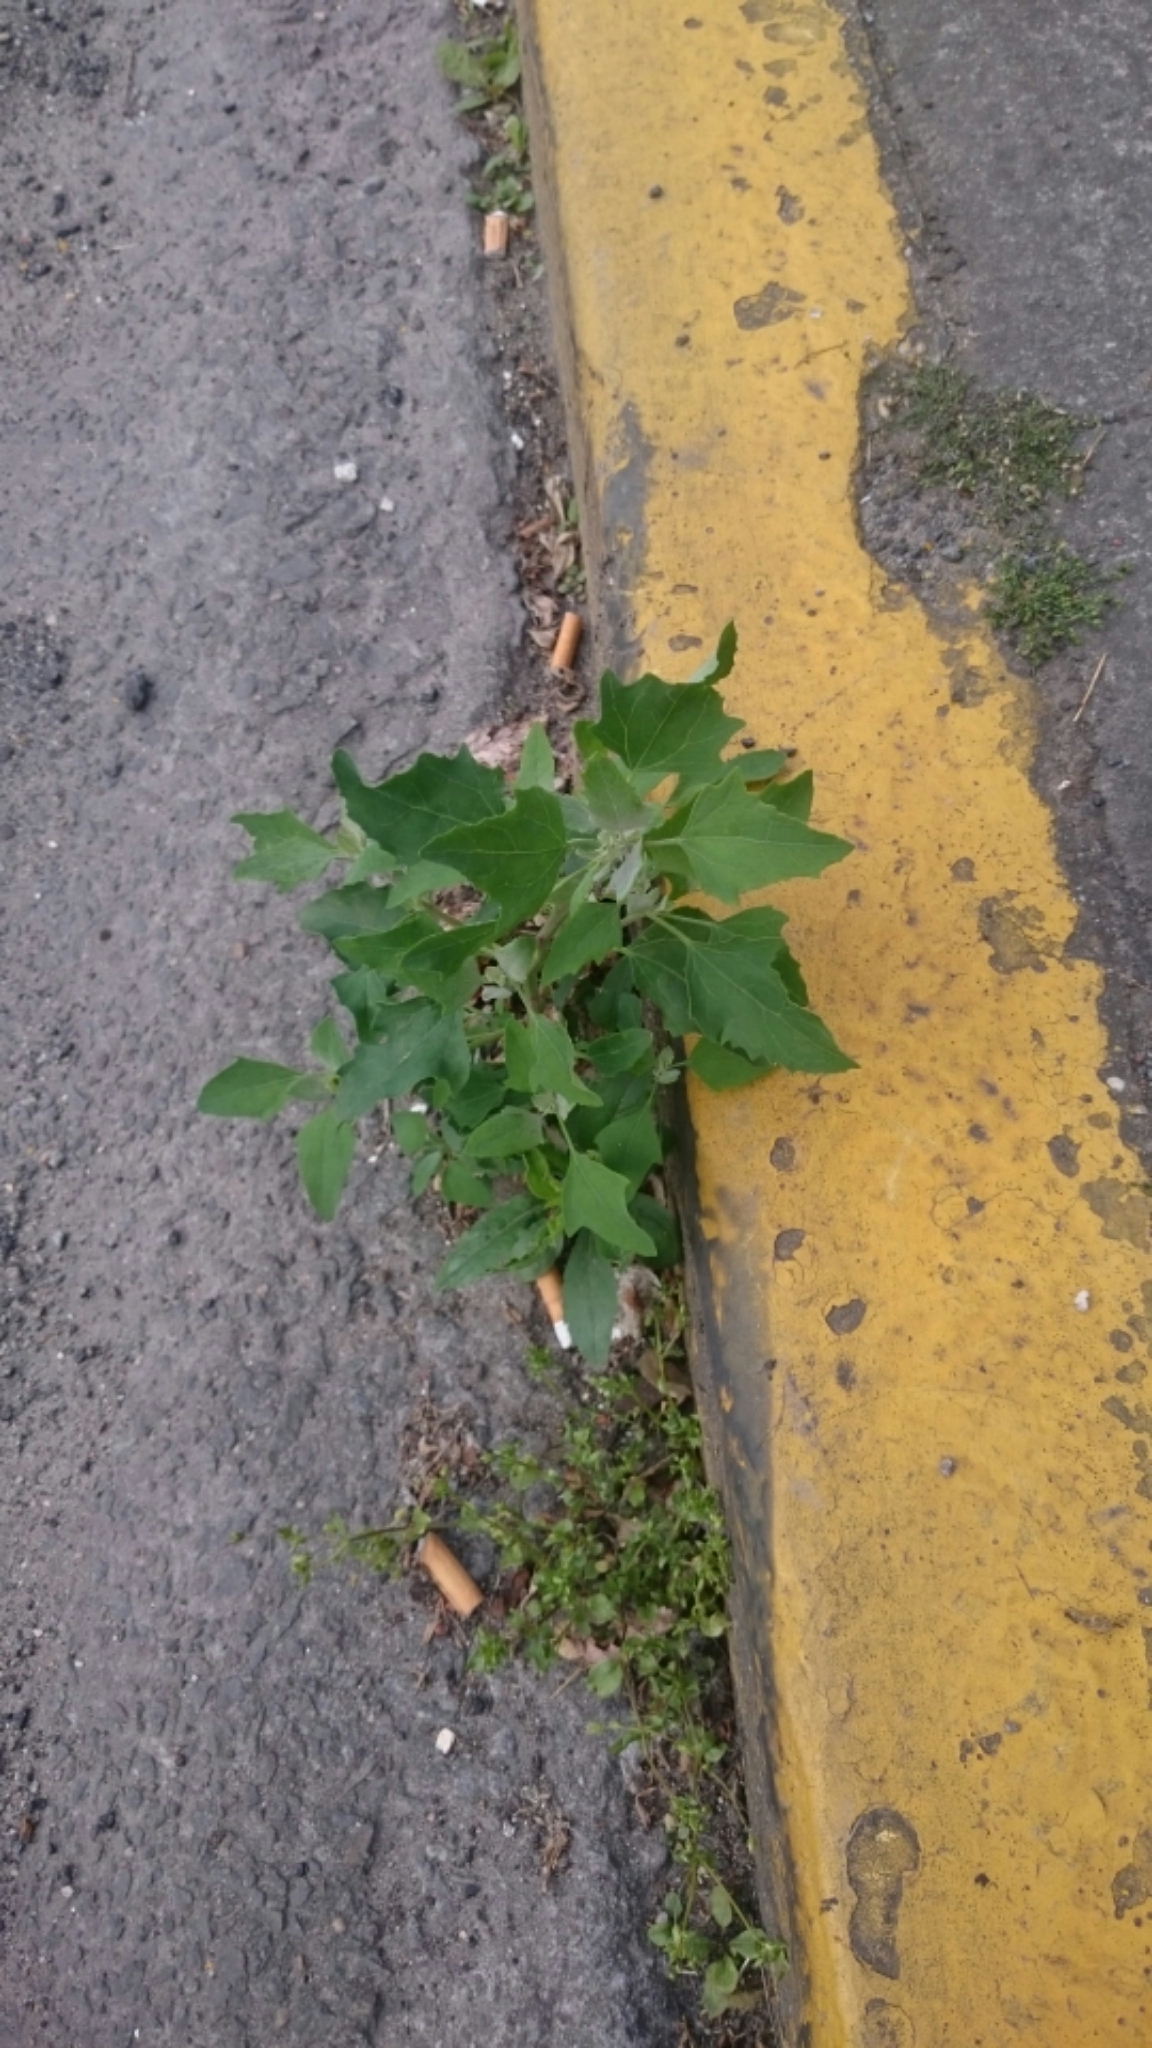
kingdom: Plantae
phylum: Tracheophyta
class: Magnoliopsida
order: Caryophyllales
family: Amaranthaceae
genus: Chenopodium
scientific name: Chenopodium album
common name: Fat-hen
